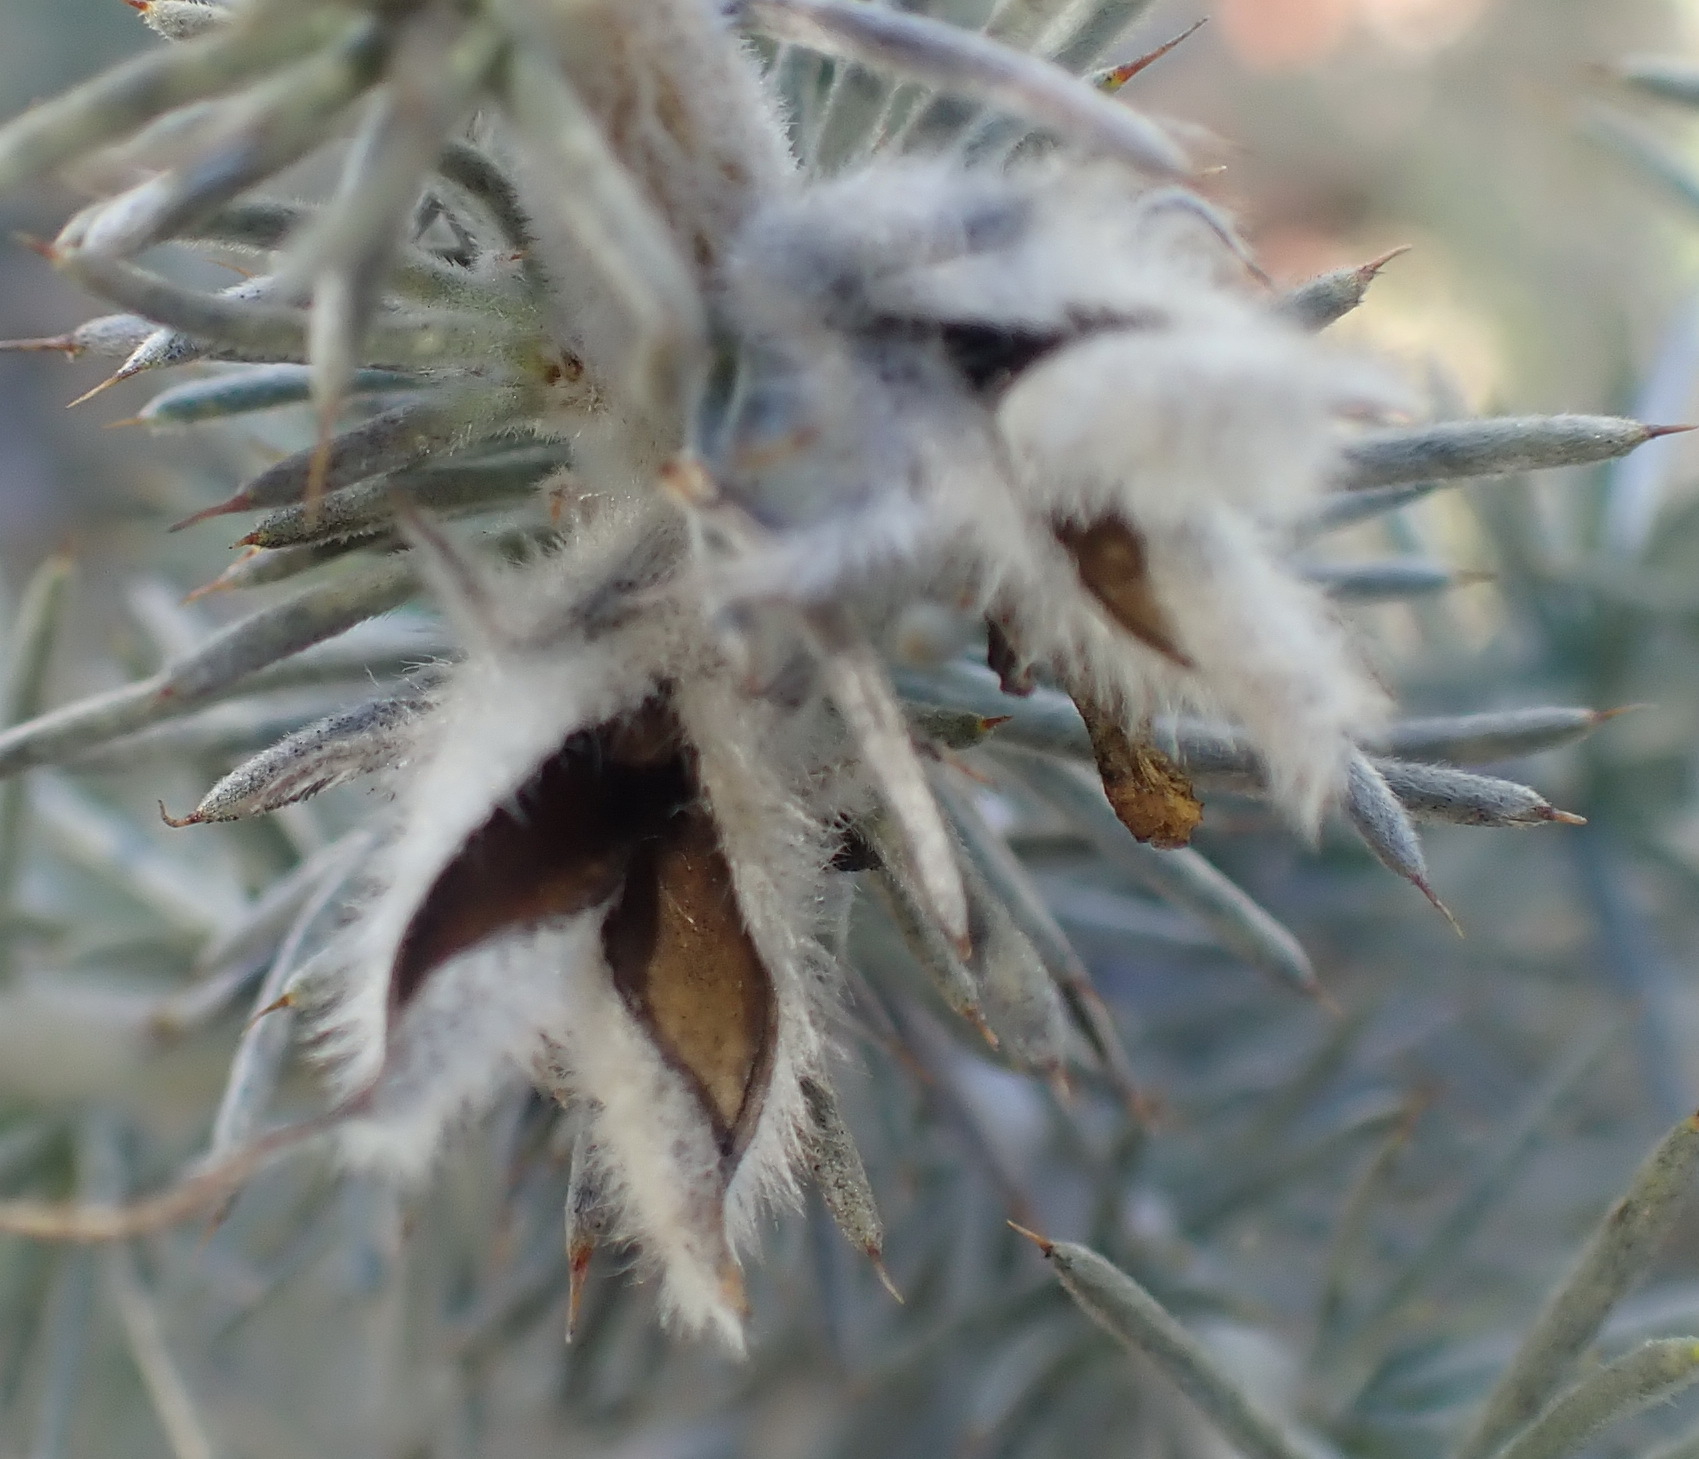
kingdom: Plantae
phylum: Tracheophyta
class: Magnoliopsida
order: Fabales
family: Fabaceae
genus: Aspalathus
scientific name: Aspalathus hystrix
